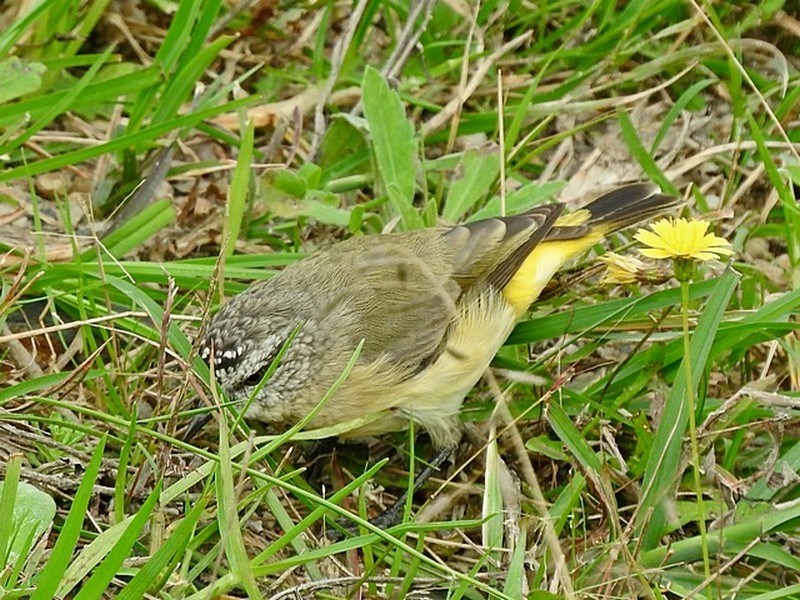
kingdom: Animalia
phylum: Chordata
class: Aves
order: Passeriformes
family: Acanthizidae
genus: Acanthiza
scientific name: Acanthiza chrysorrhoa
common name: Yellow-rumped thornbill
